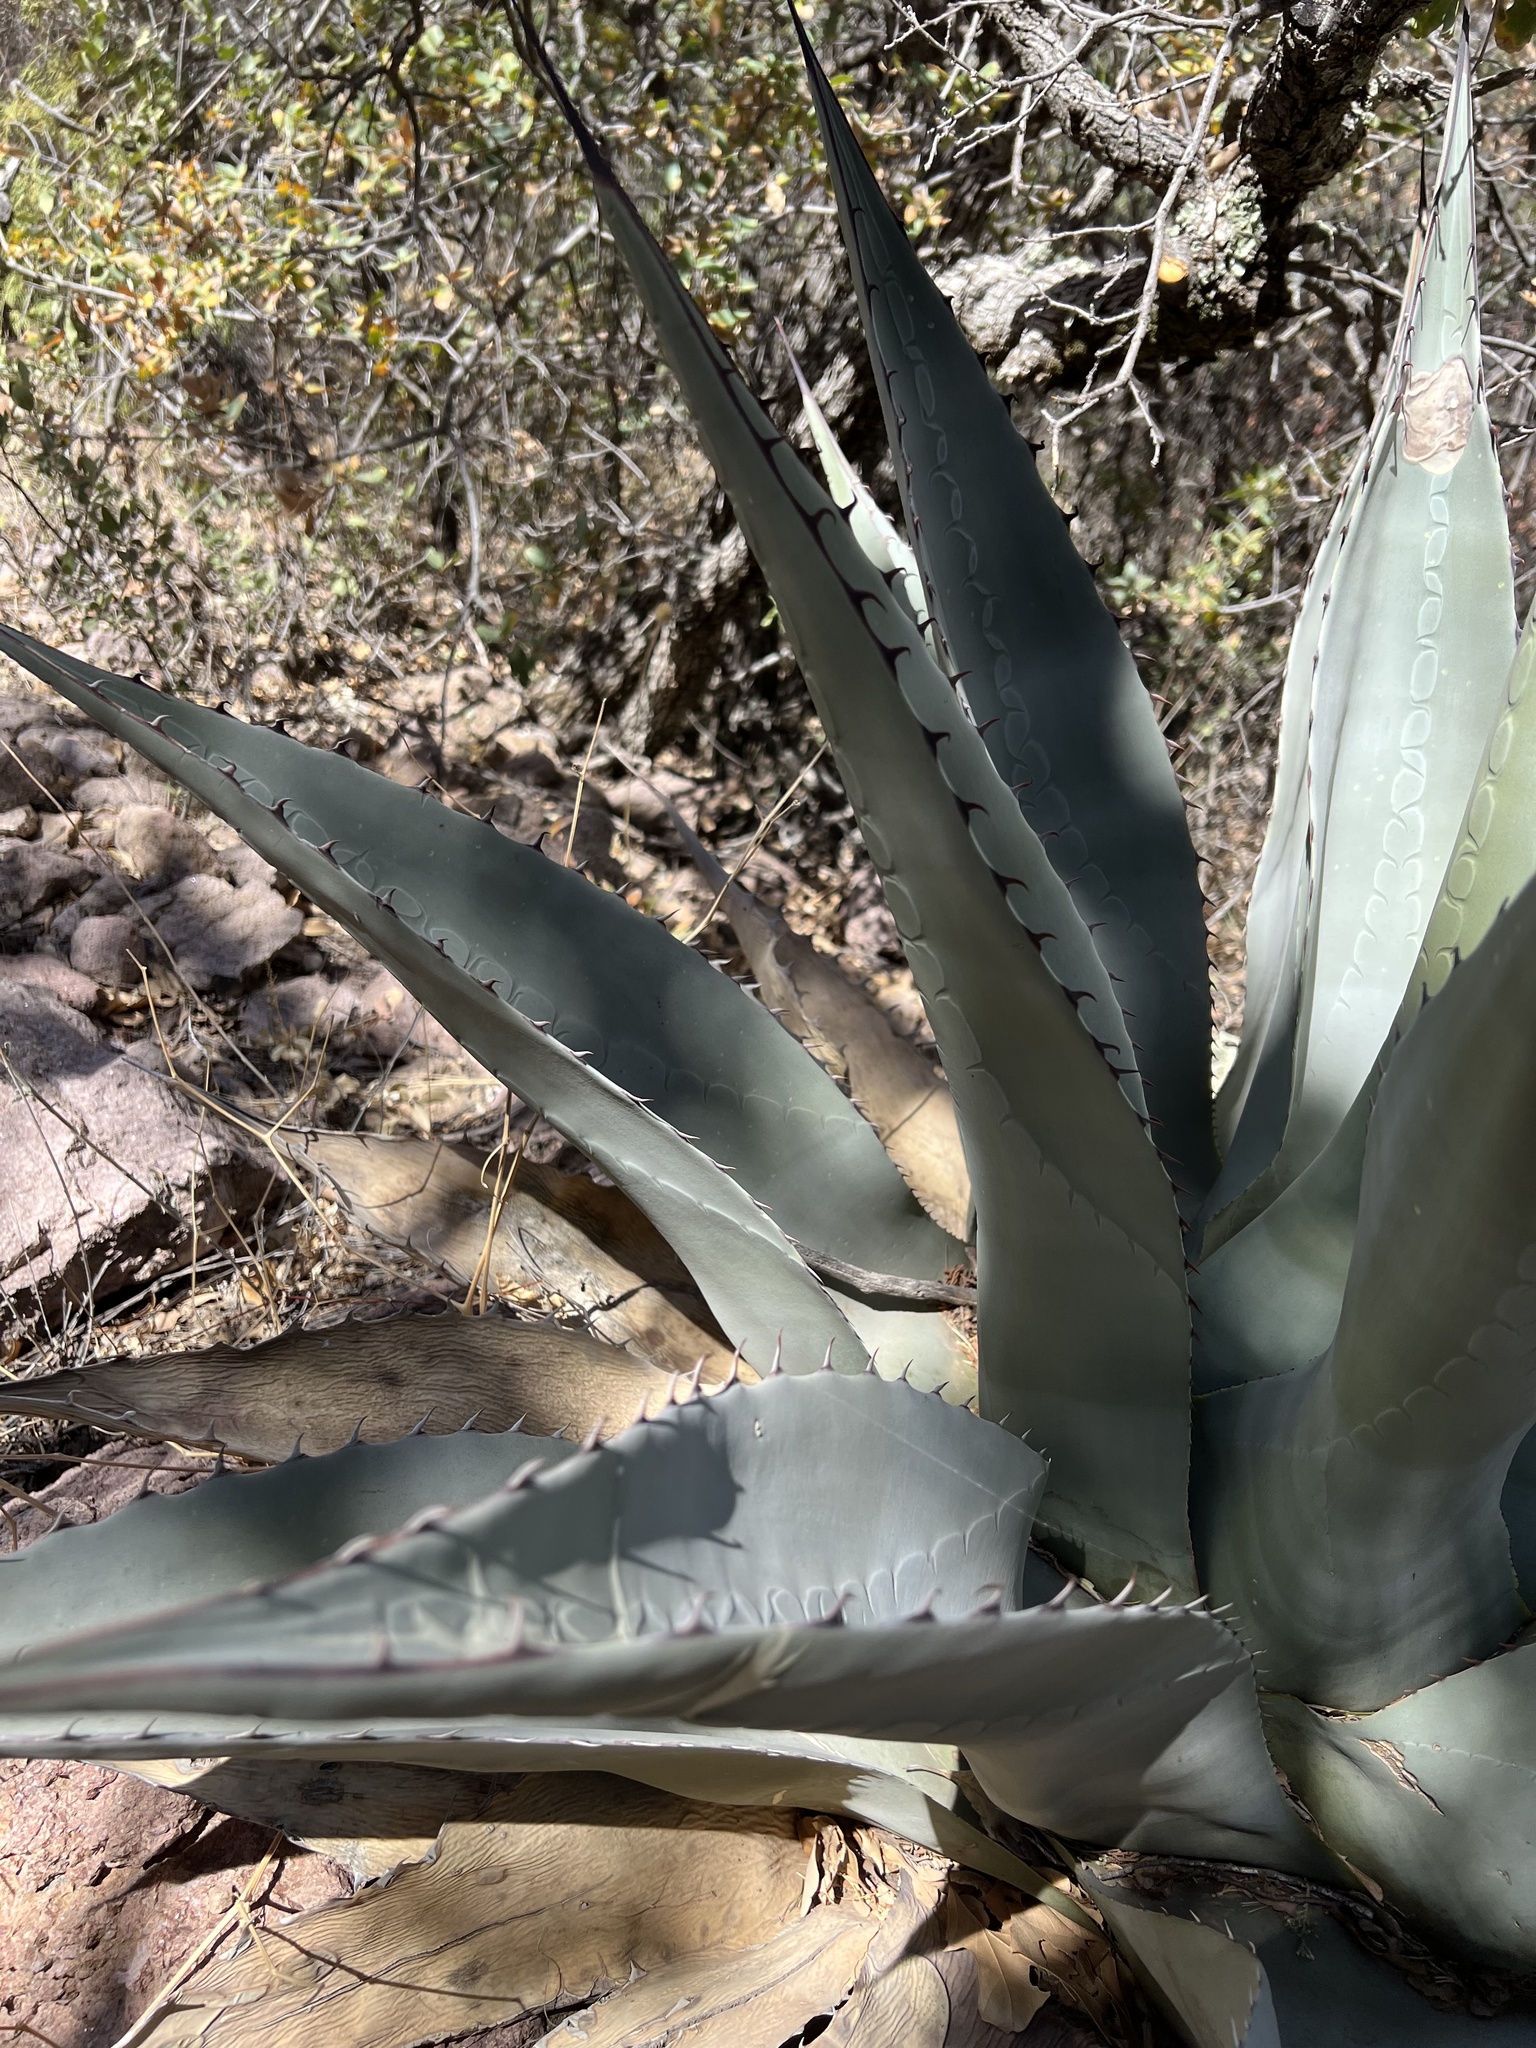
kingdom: Plantae
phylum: Tracheophyta
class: Liliopsida
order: Asparagales
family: Asparagaceae
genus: Agave
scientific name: Agave havardiana
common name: Havard agave
